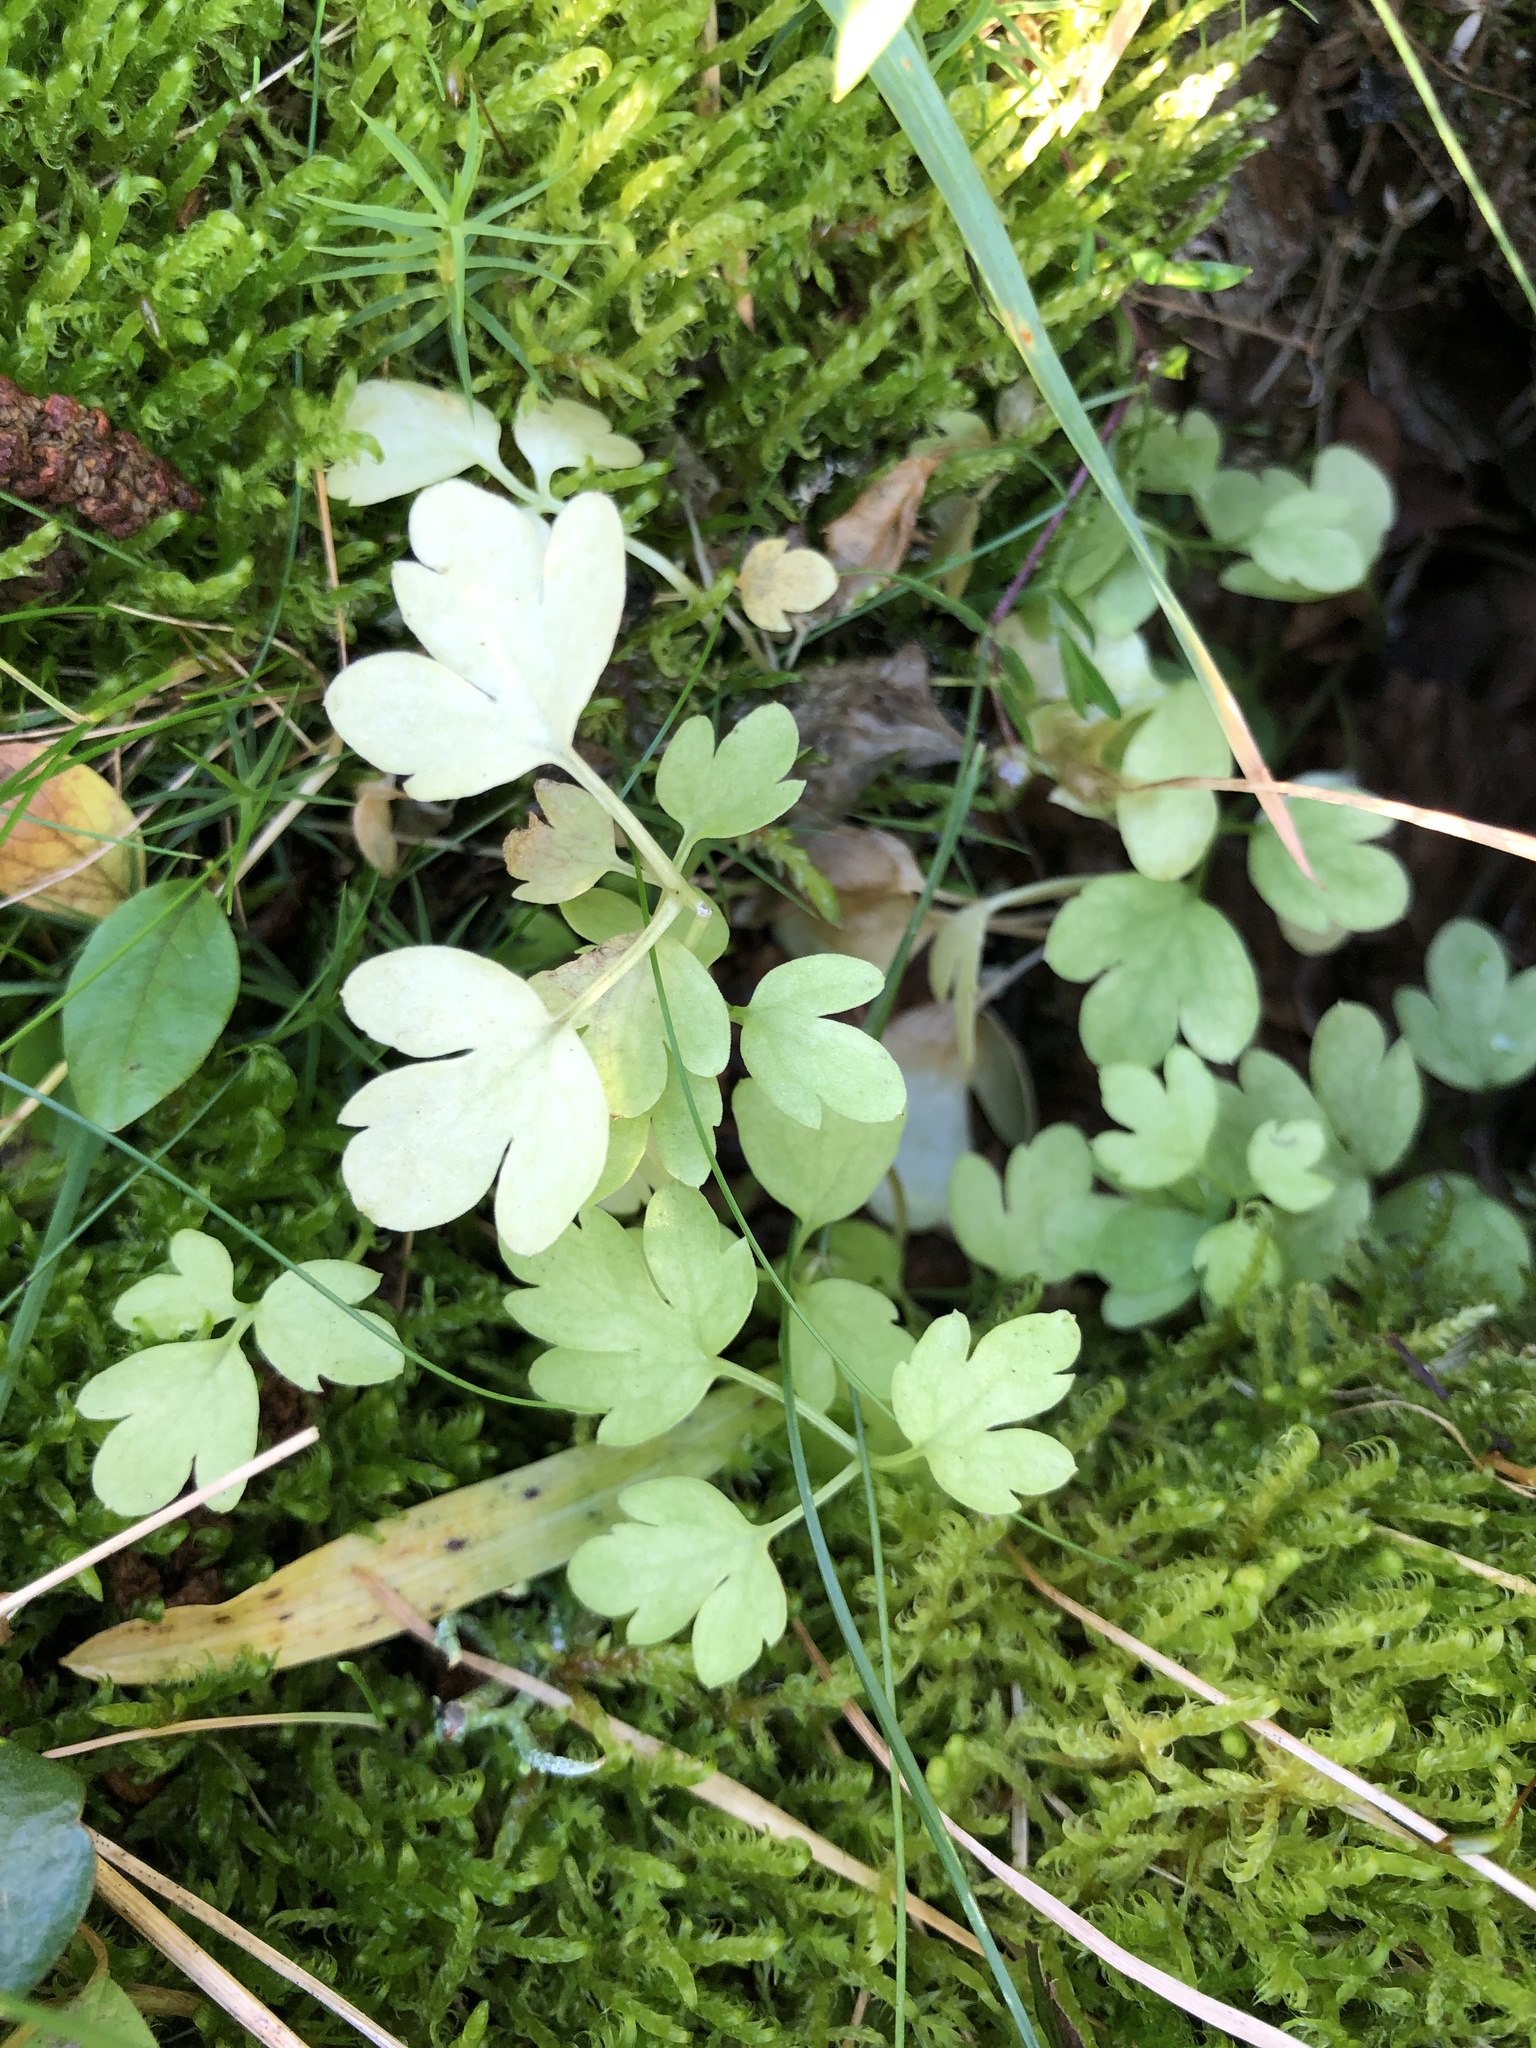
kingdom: Plantae
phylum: Tracheophyta
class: Magnoliopsida
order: Dipsacales
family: Viburnaceae
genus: Adoxa
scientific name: Adoxa moschatellina
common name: Moschatel
